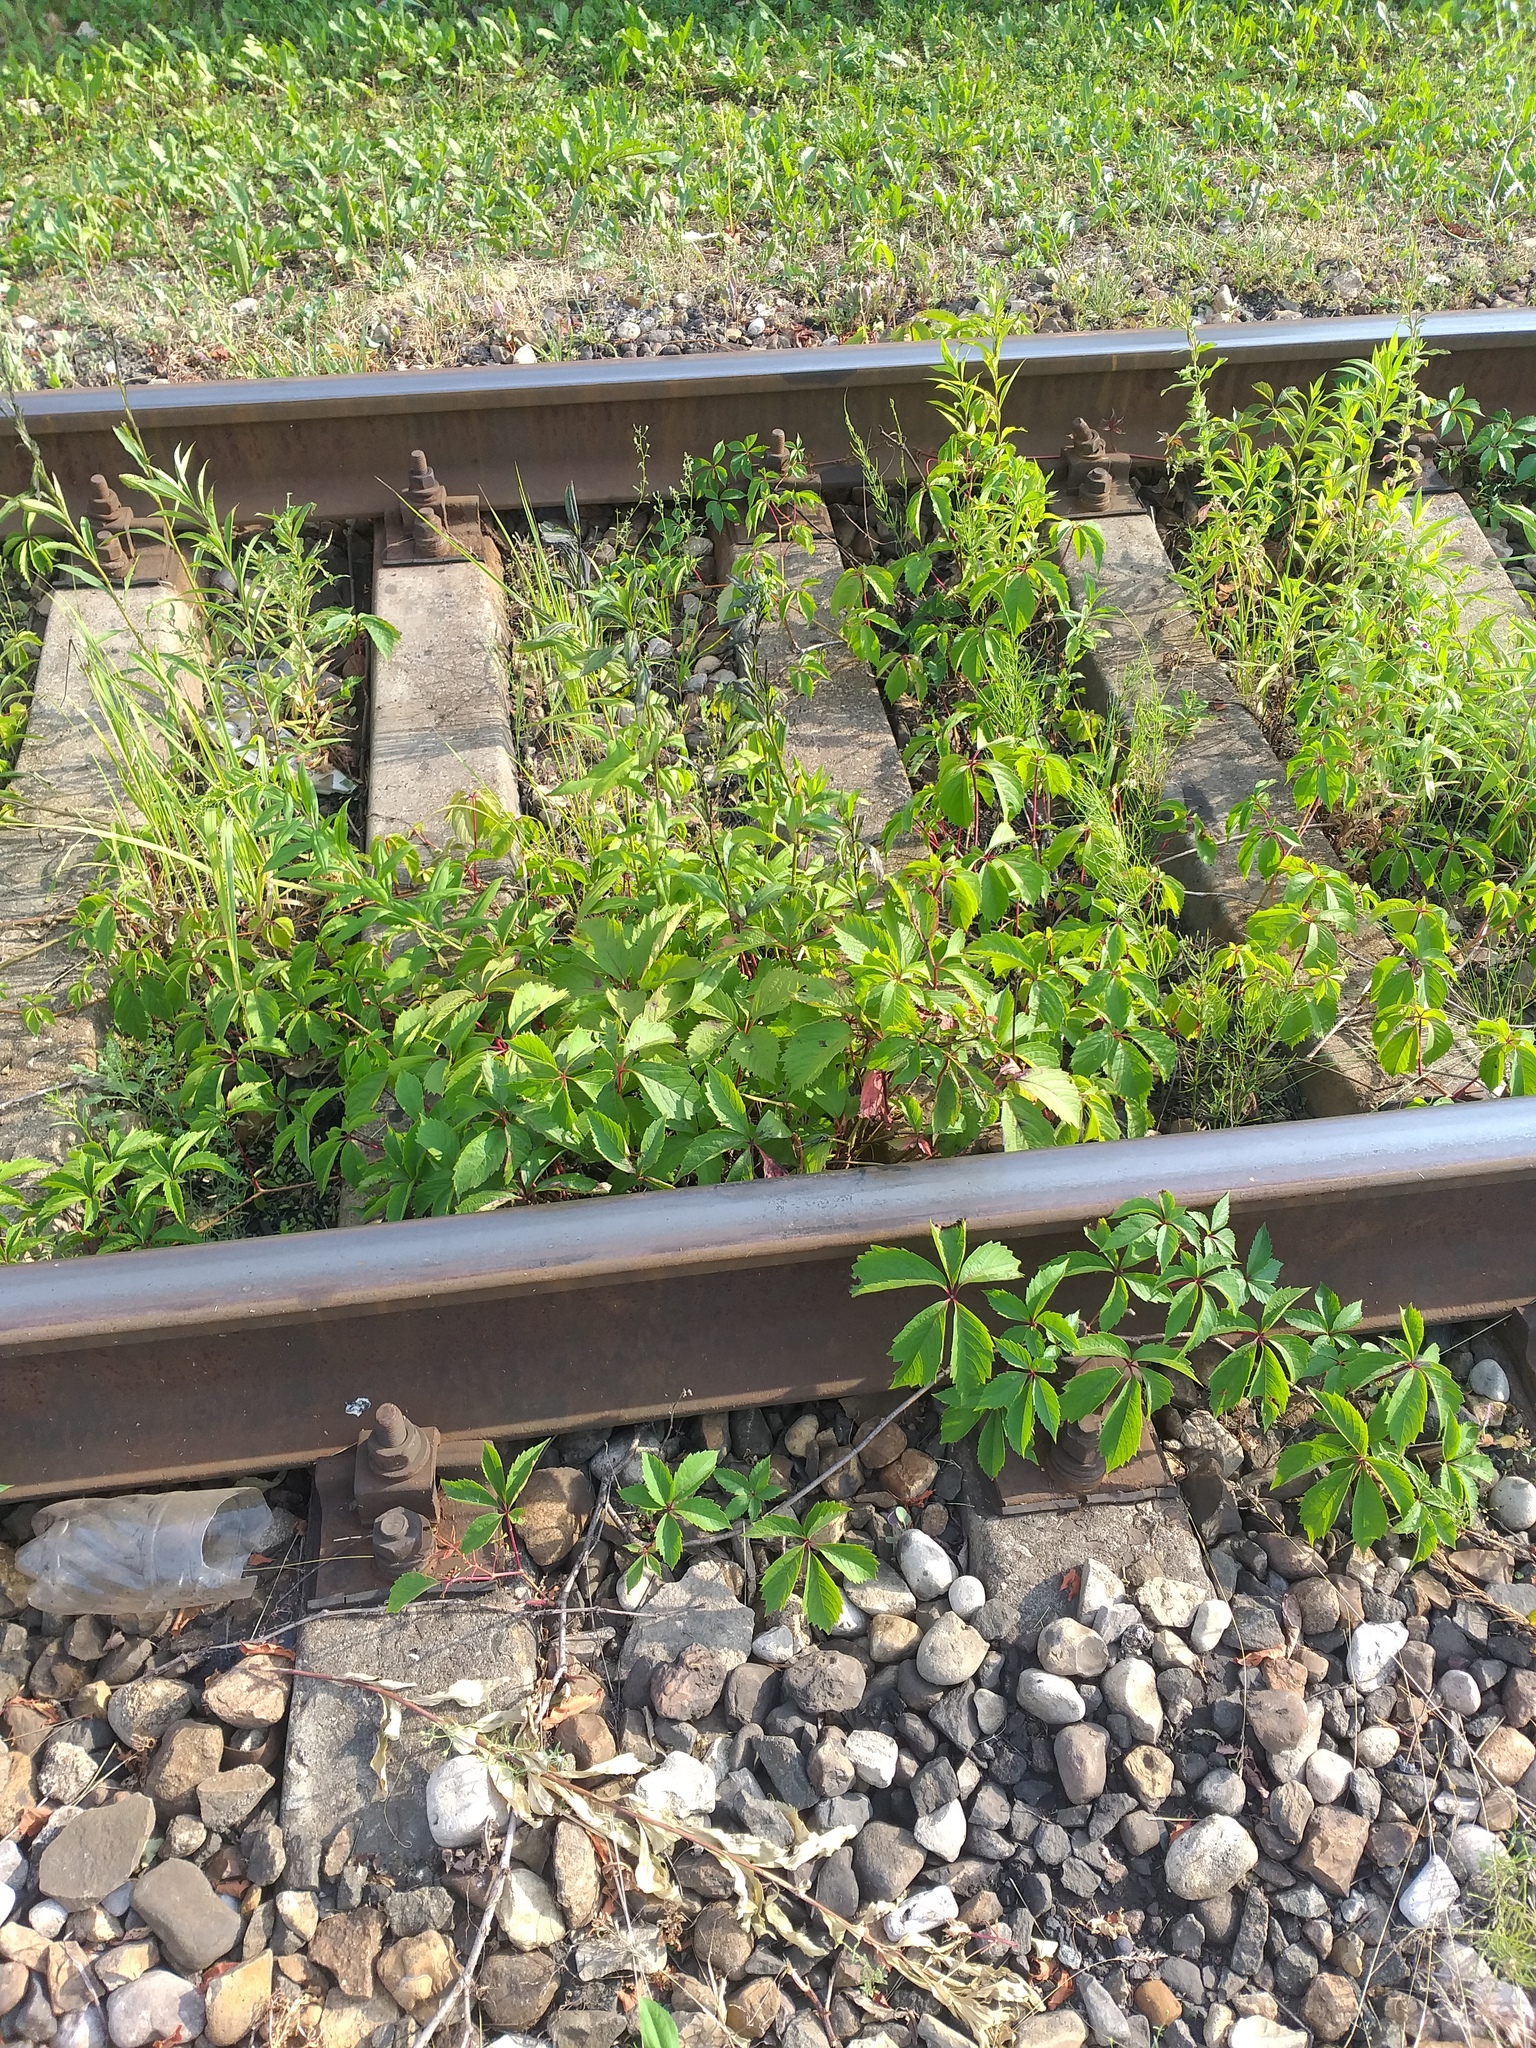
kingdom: Plantae
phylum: Tracheophyta
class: Magnoliopsida
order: Vitales
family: Vitaceae
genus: Parthenocissus
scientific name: Parthenocissus inserta
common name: False virginia-creeper
